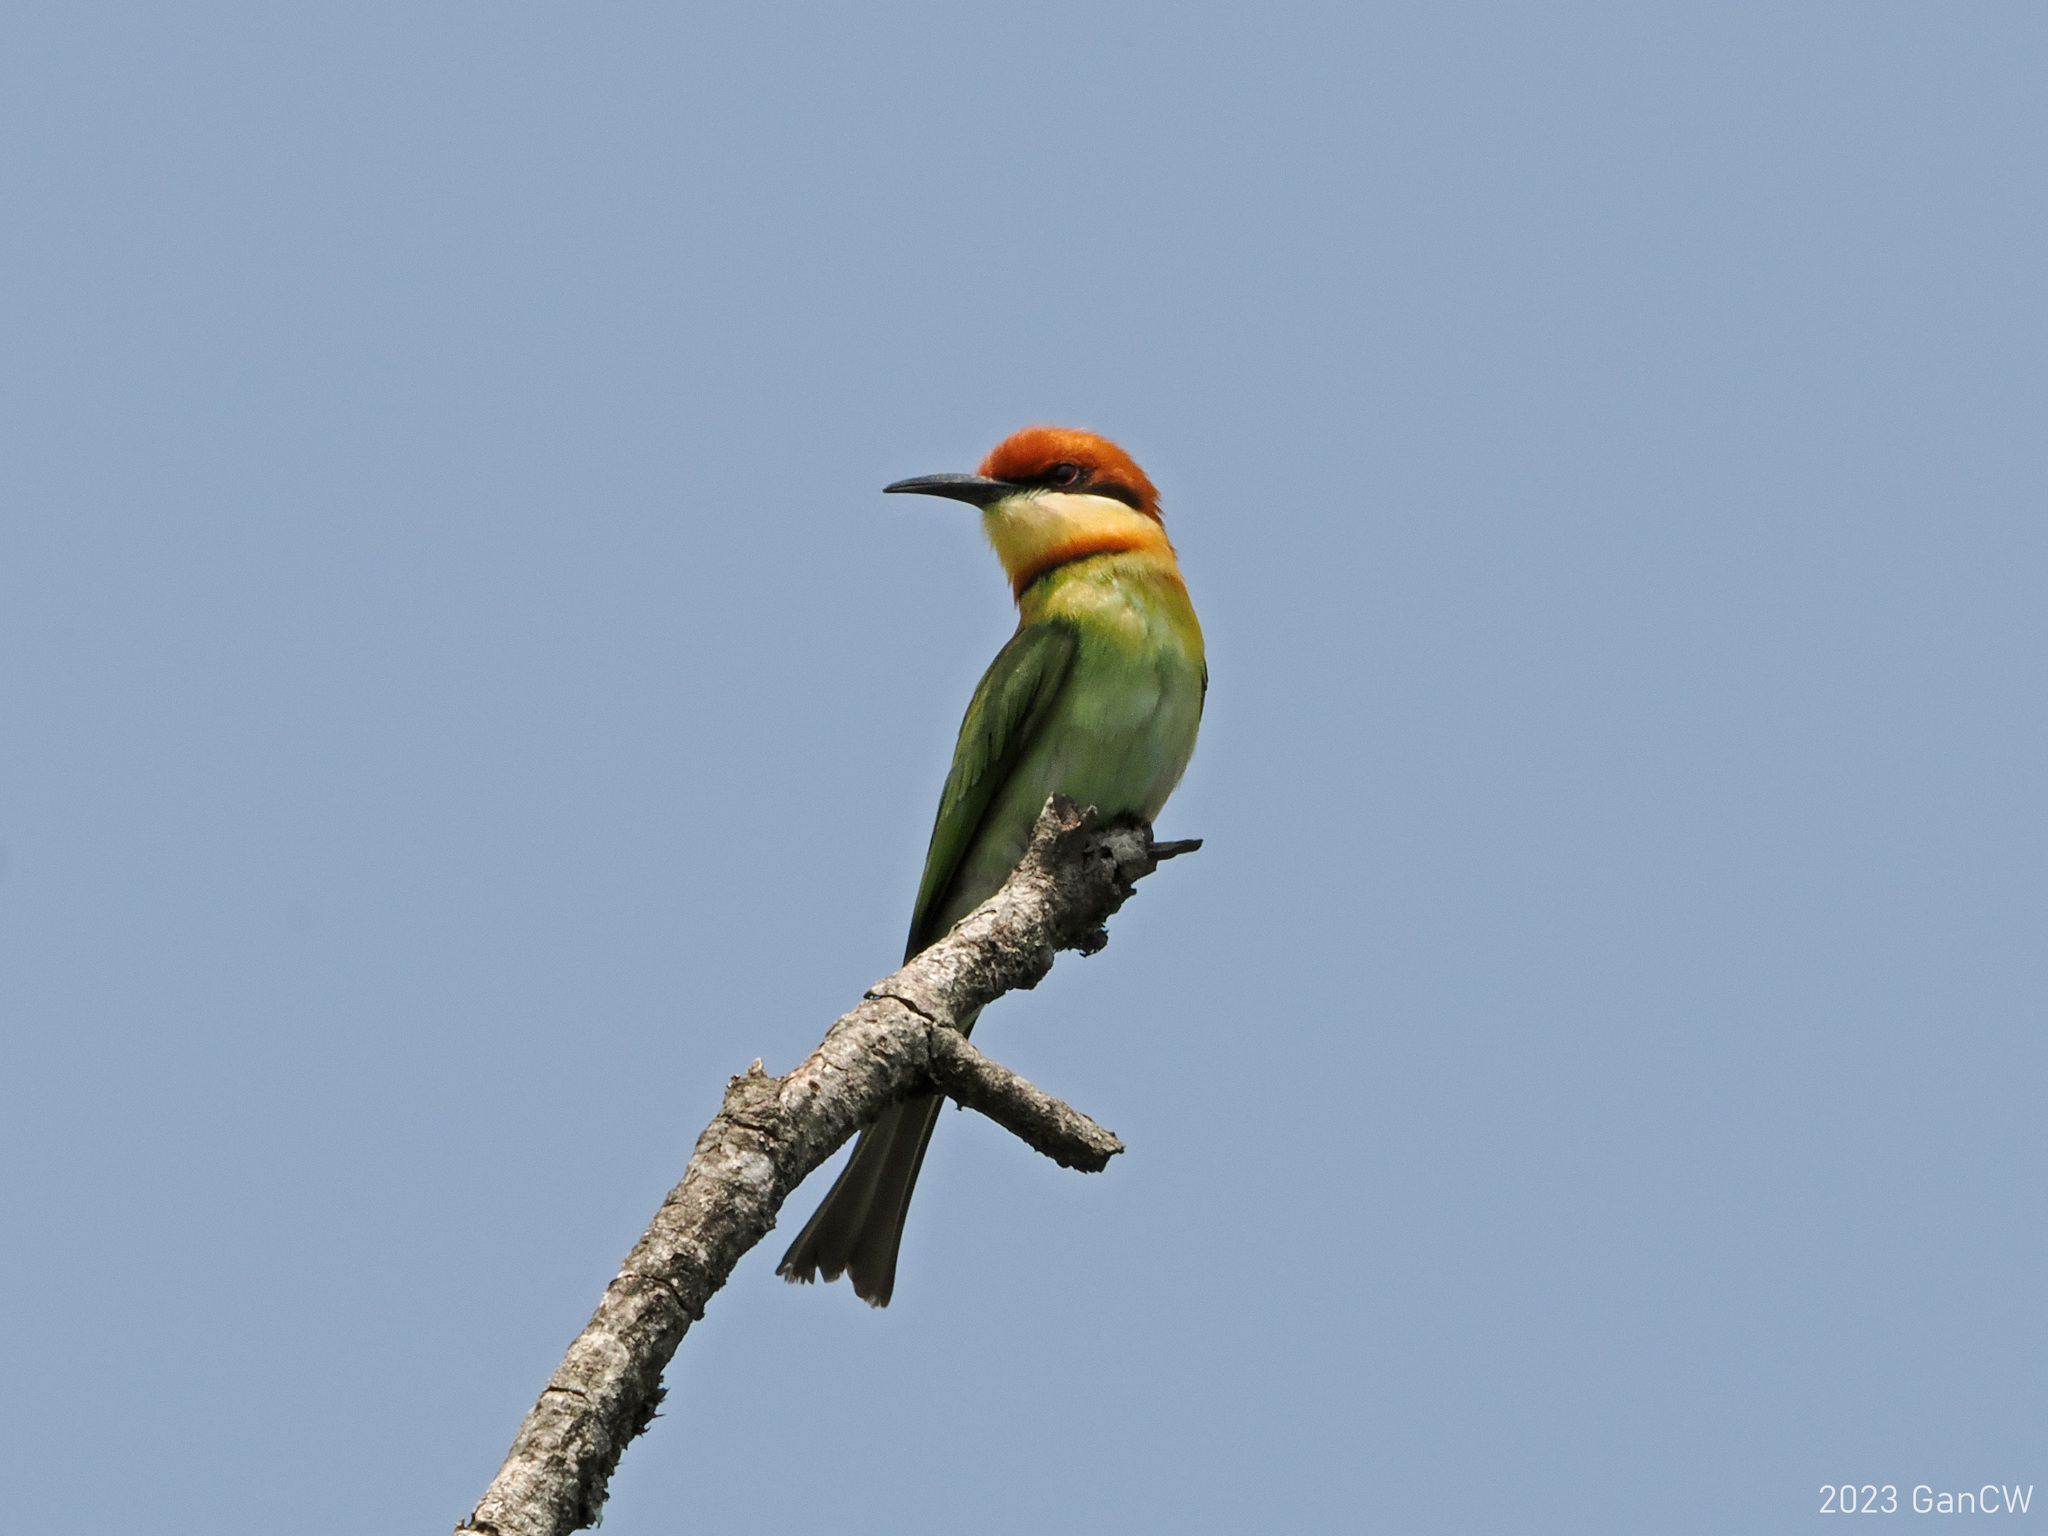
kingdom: Animalia
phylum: Chordata
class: Aves
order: Coraciiformes
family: Meropidae
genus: Merops
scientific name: Merops leschenaulti
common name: Chestnut-headed bee-eater
